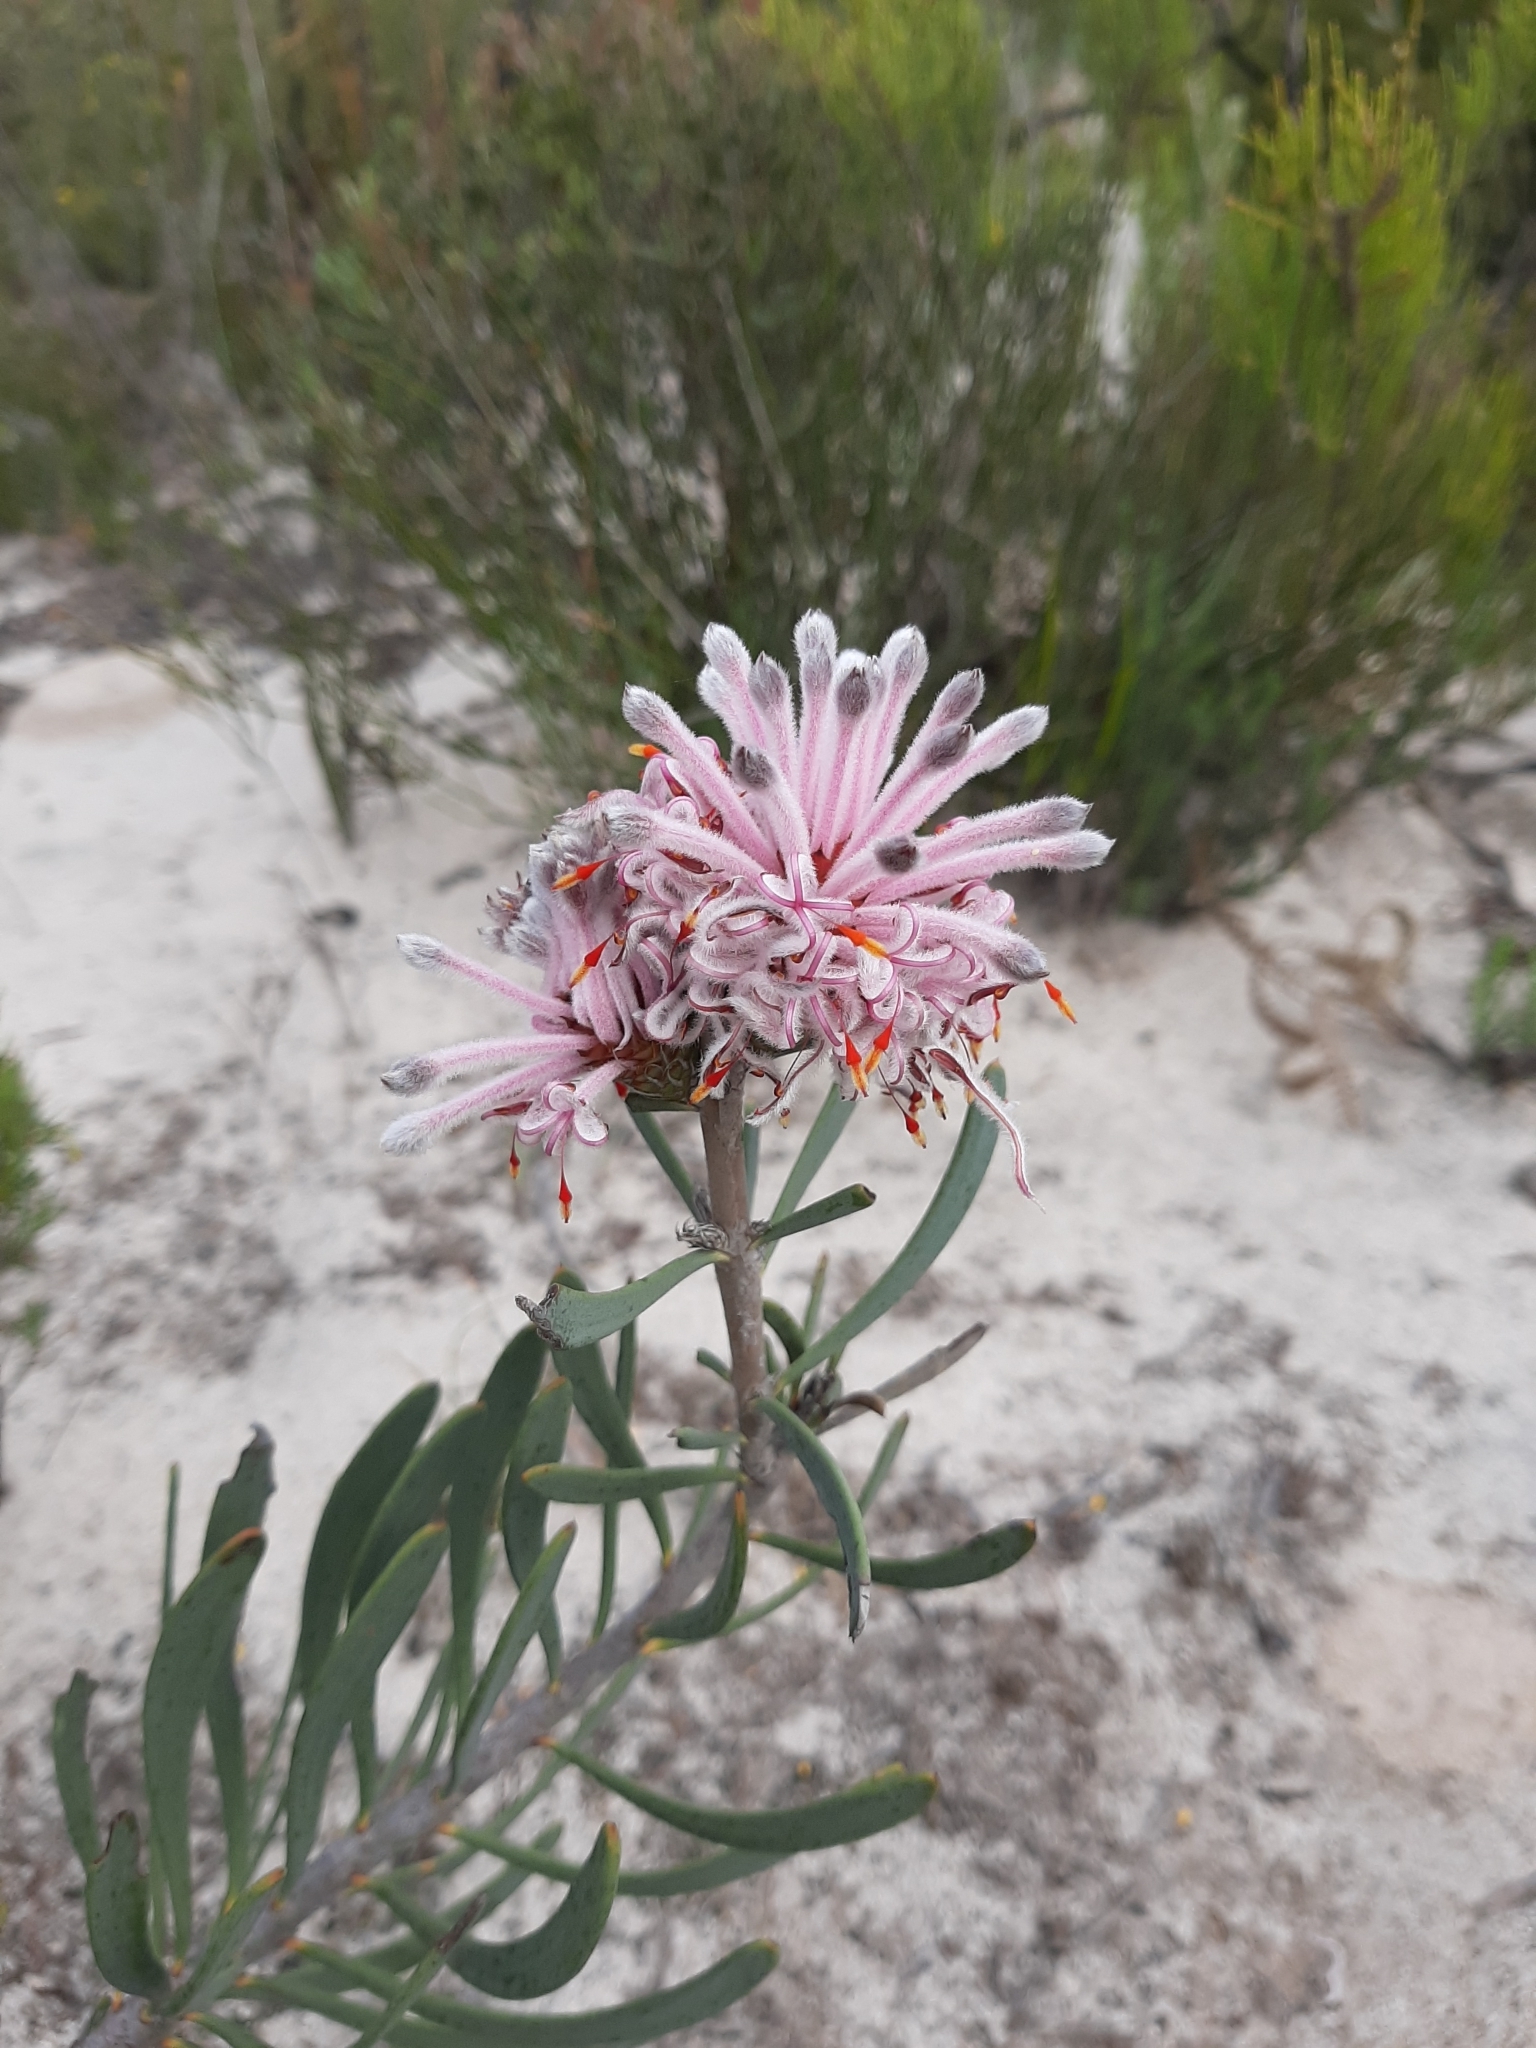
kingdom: Plantae
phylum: Tracheophyta
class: Magnoliopsida
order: Proteales
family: Proteaceae
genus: Petrophile
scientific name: Petrophile linearis
